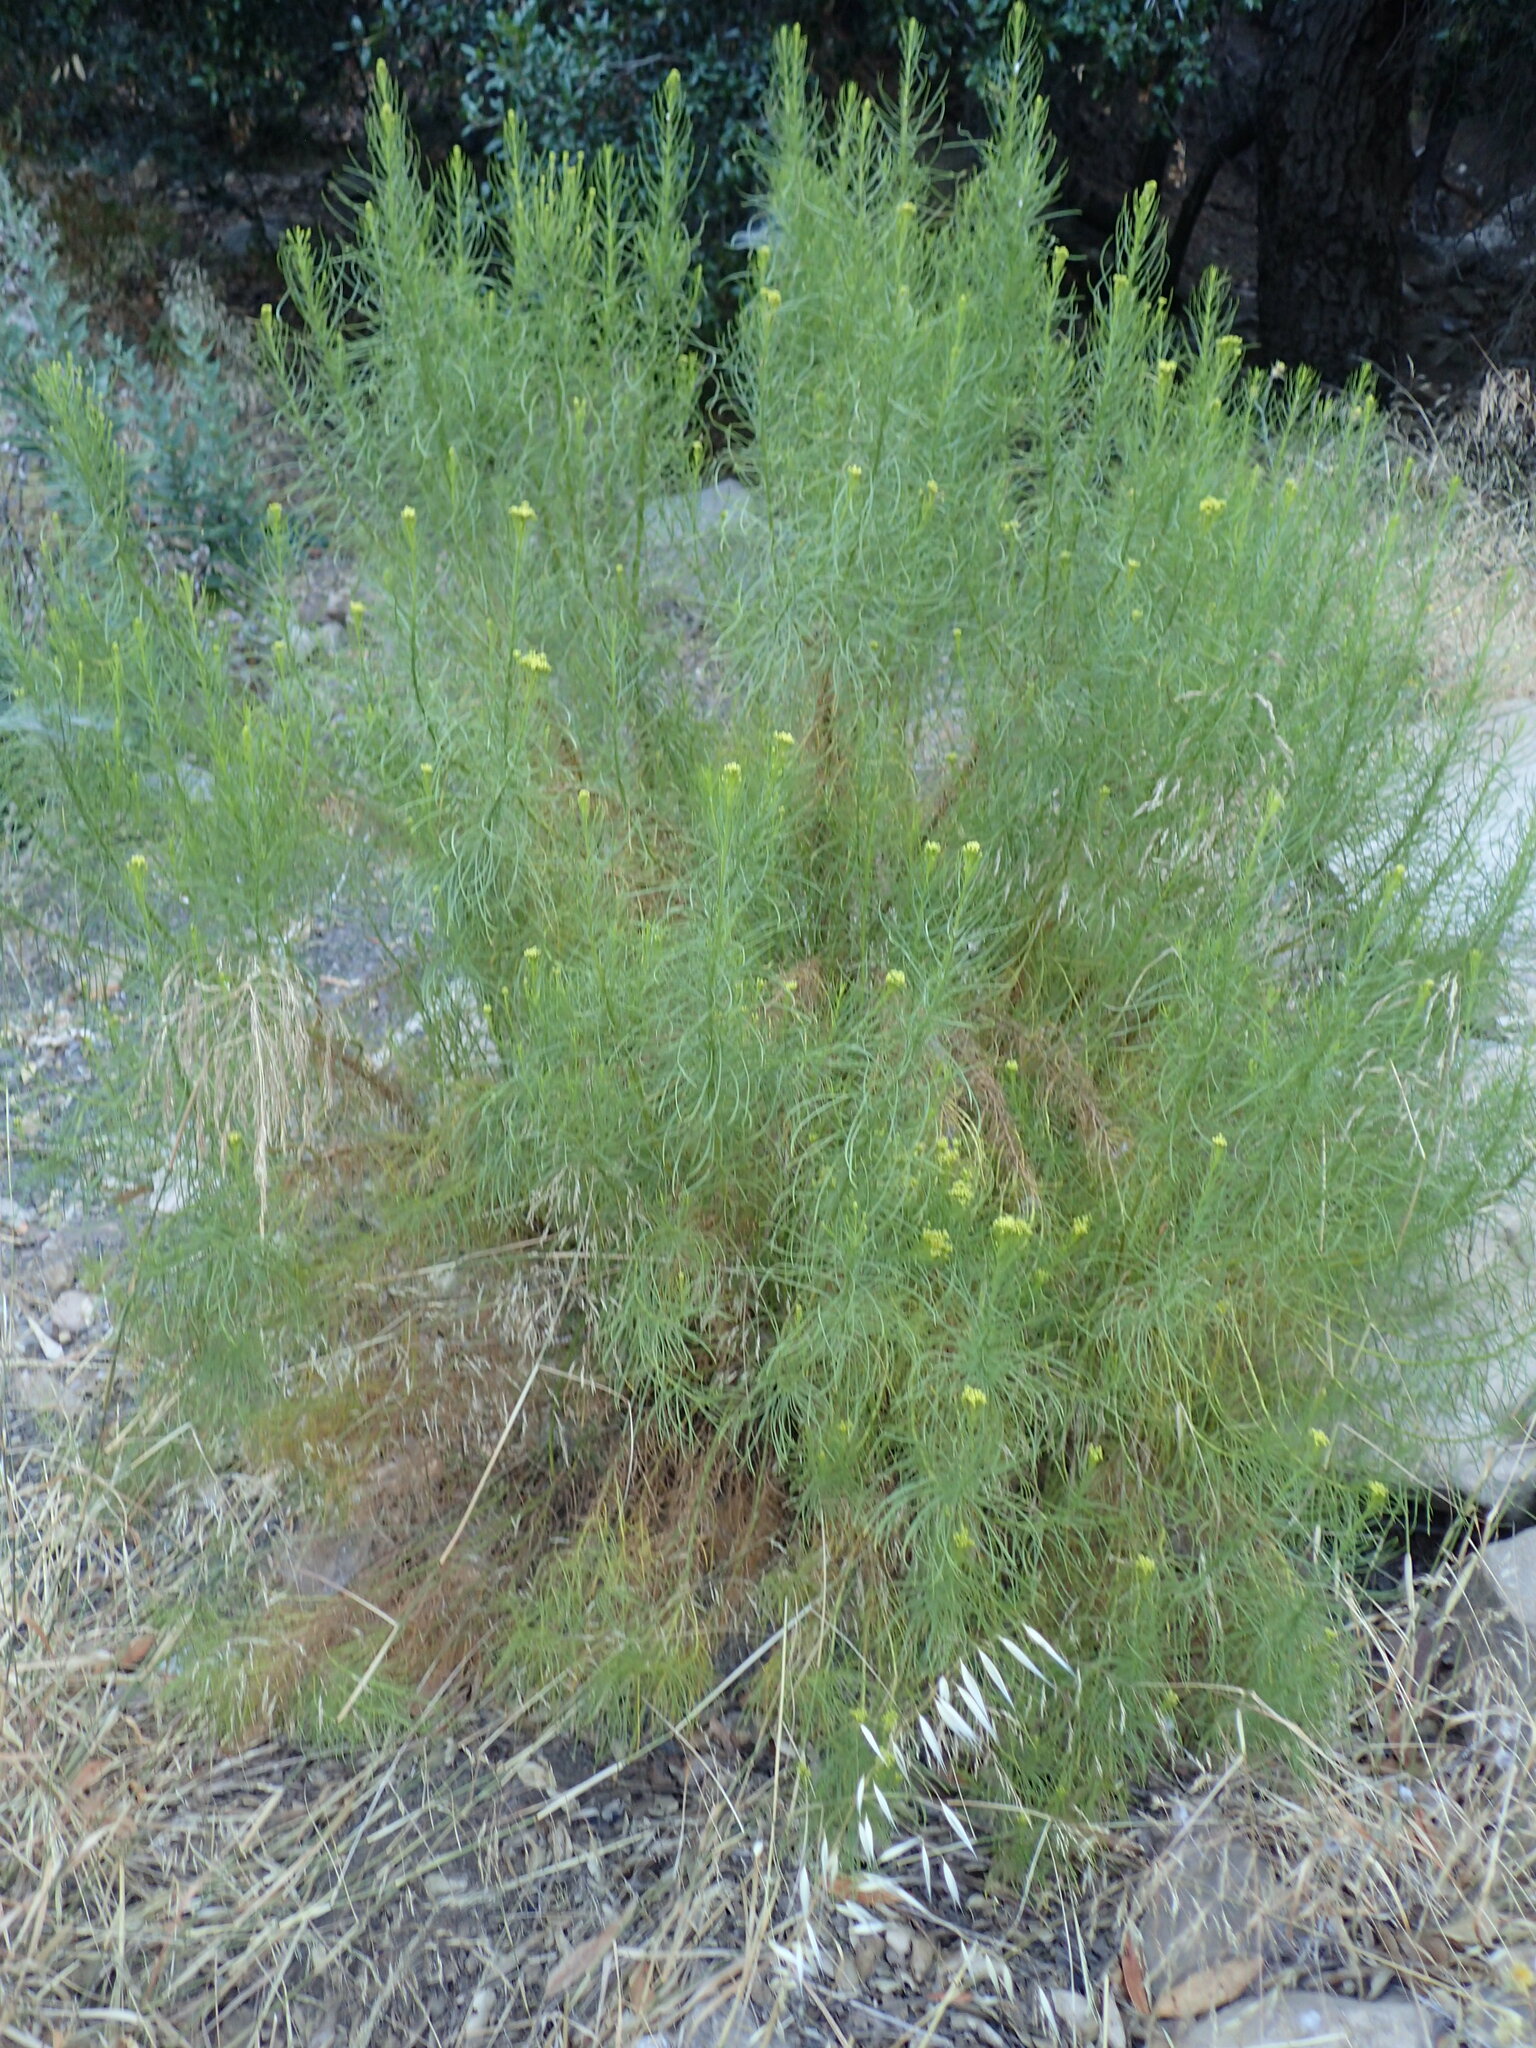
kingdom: Plantae
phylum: Tracheophyta
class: Magnoliopsida
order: Asterales
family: Asteraceae
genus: Ericameria
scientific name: Ericameria arborescens
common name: Goldenfleece
